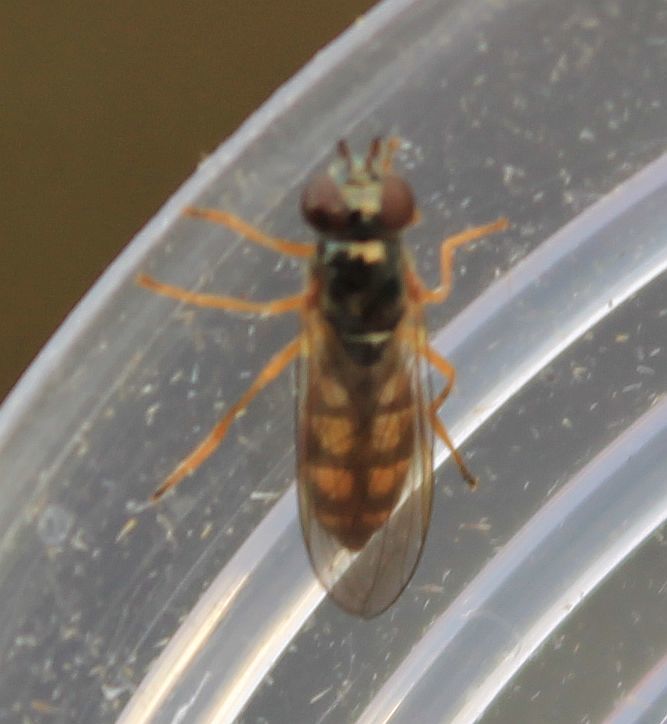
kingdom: Animalia
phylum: Arthropoda
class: Insecta
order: Diptera
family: Syrphidae
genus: Melanostoma
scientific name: Melanostoma scalare
